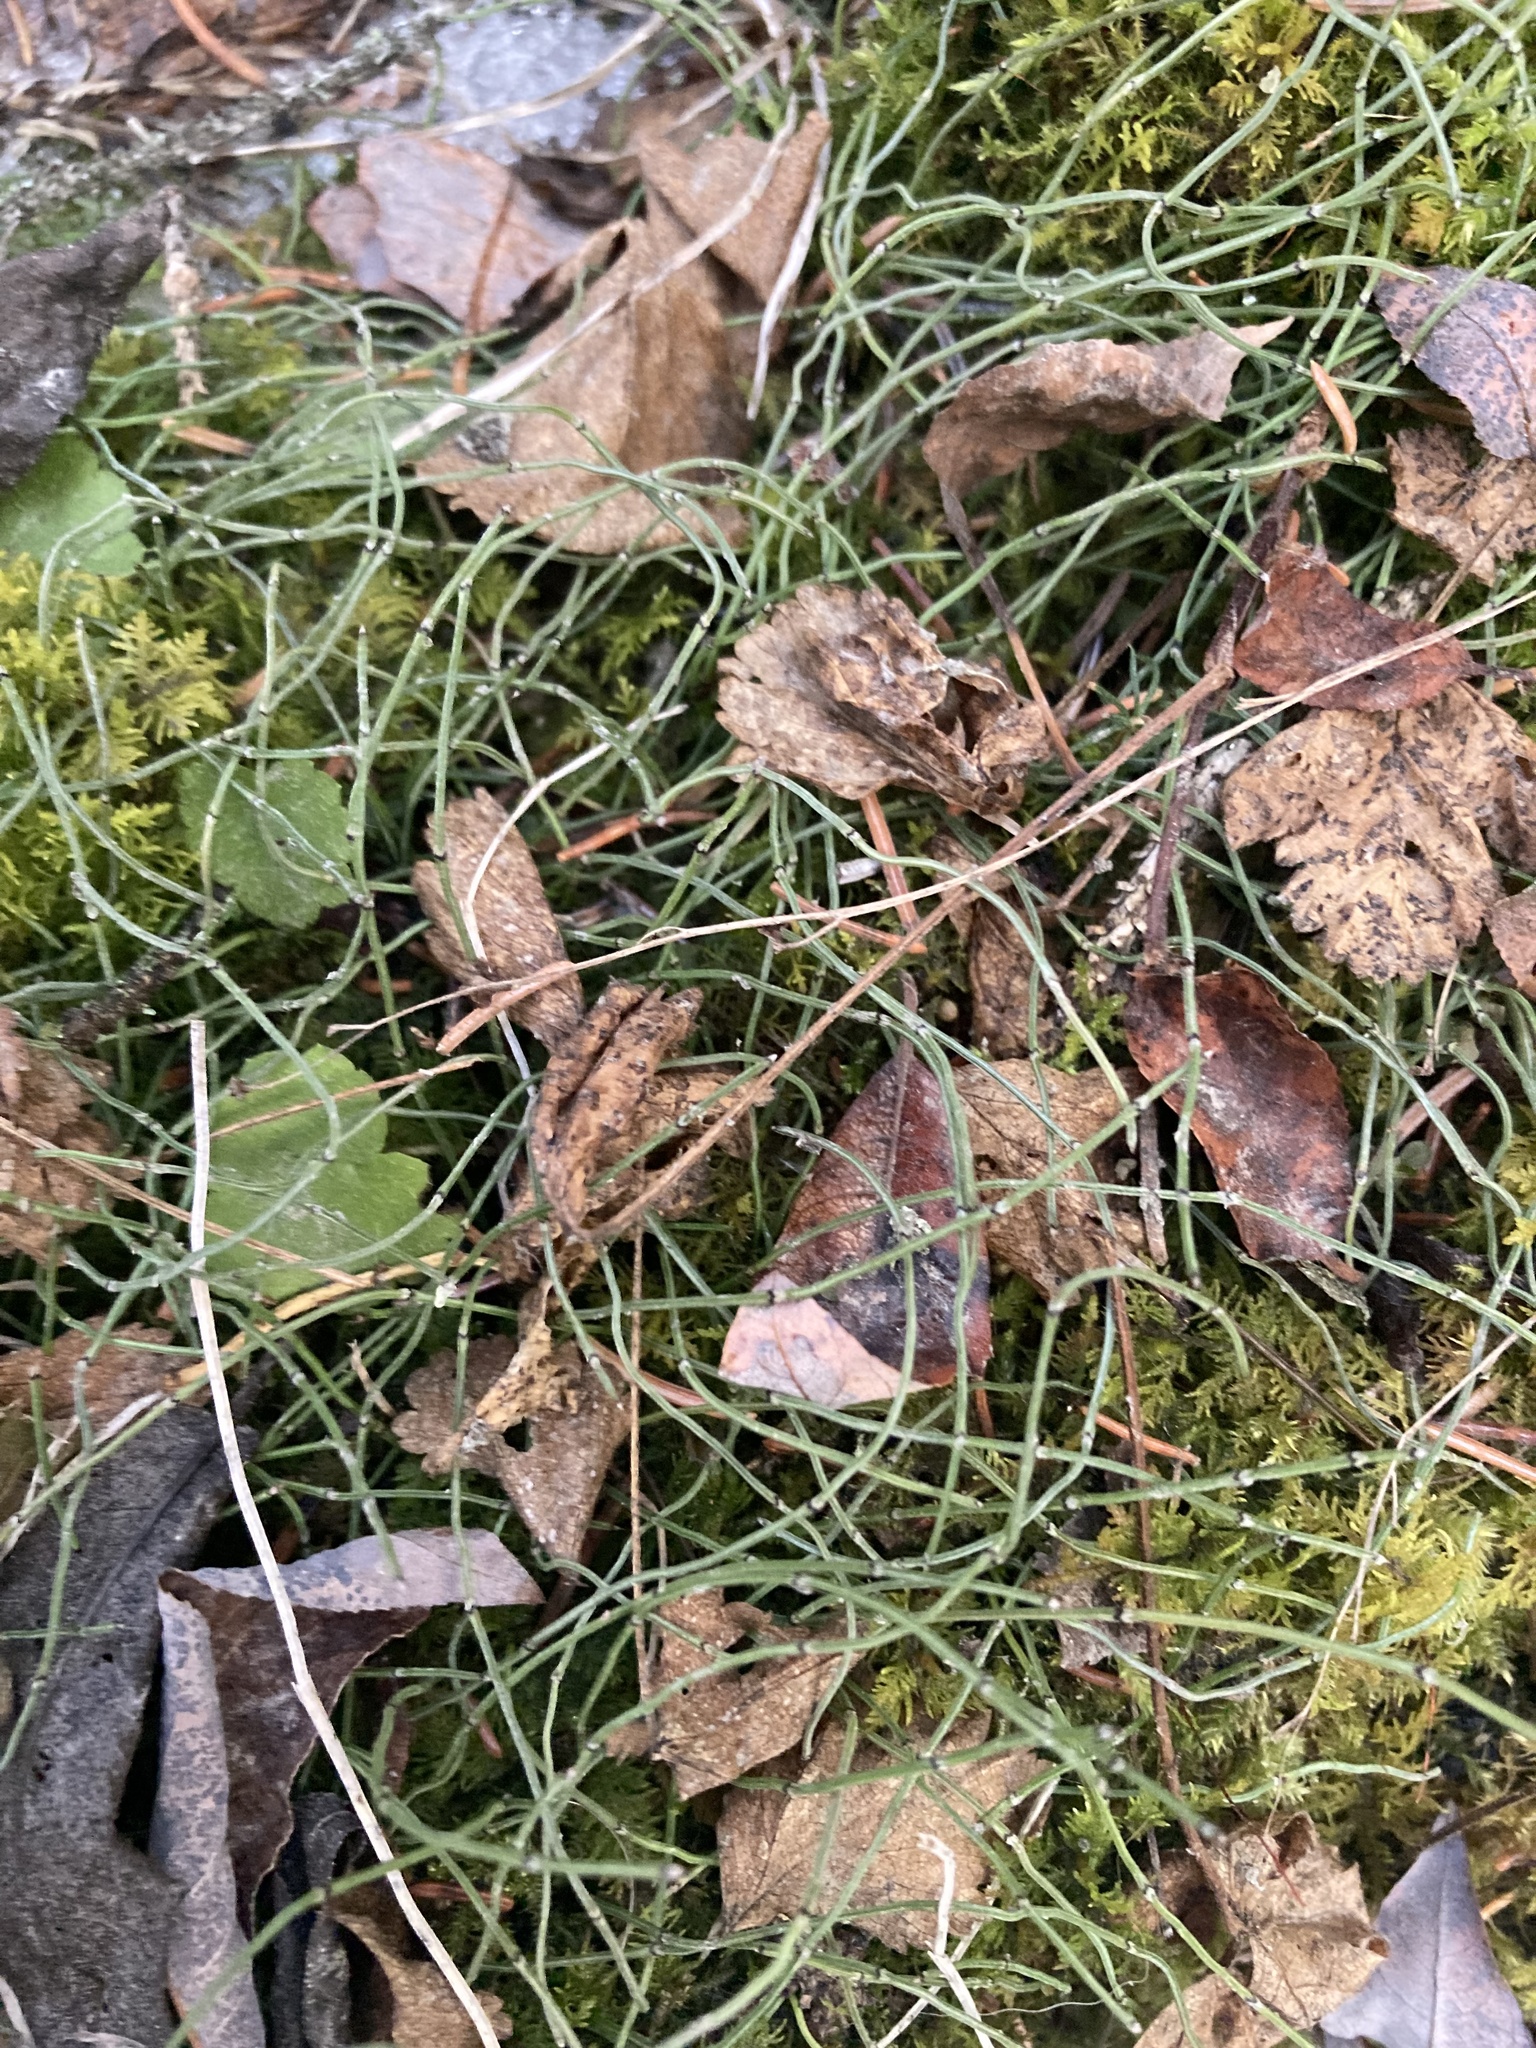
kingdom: Plantae
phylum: Tracheophyta
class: Polypodiopsida
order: Equisetales
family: Equisetaceae
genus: Equisetum
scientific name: Equisetum scirpoides
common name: Delicate horsetail
